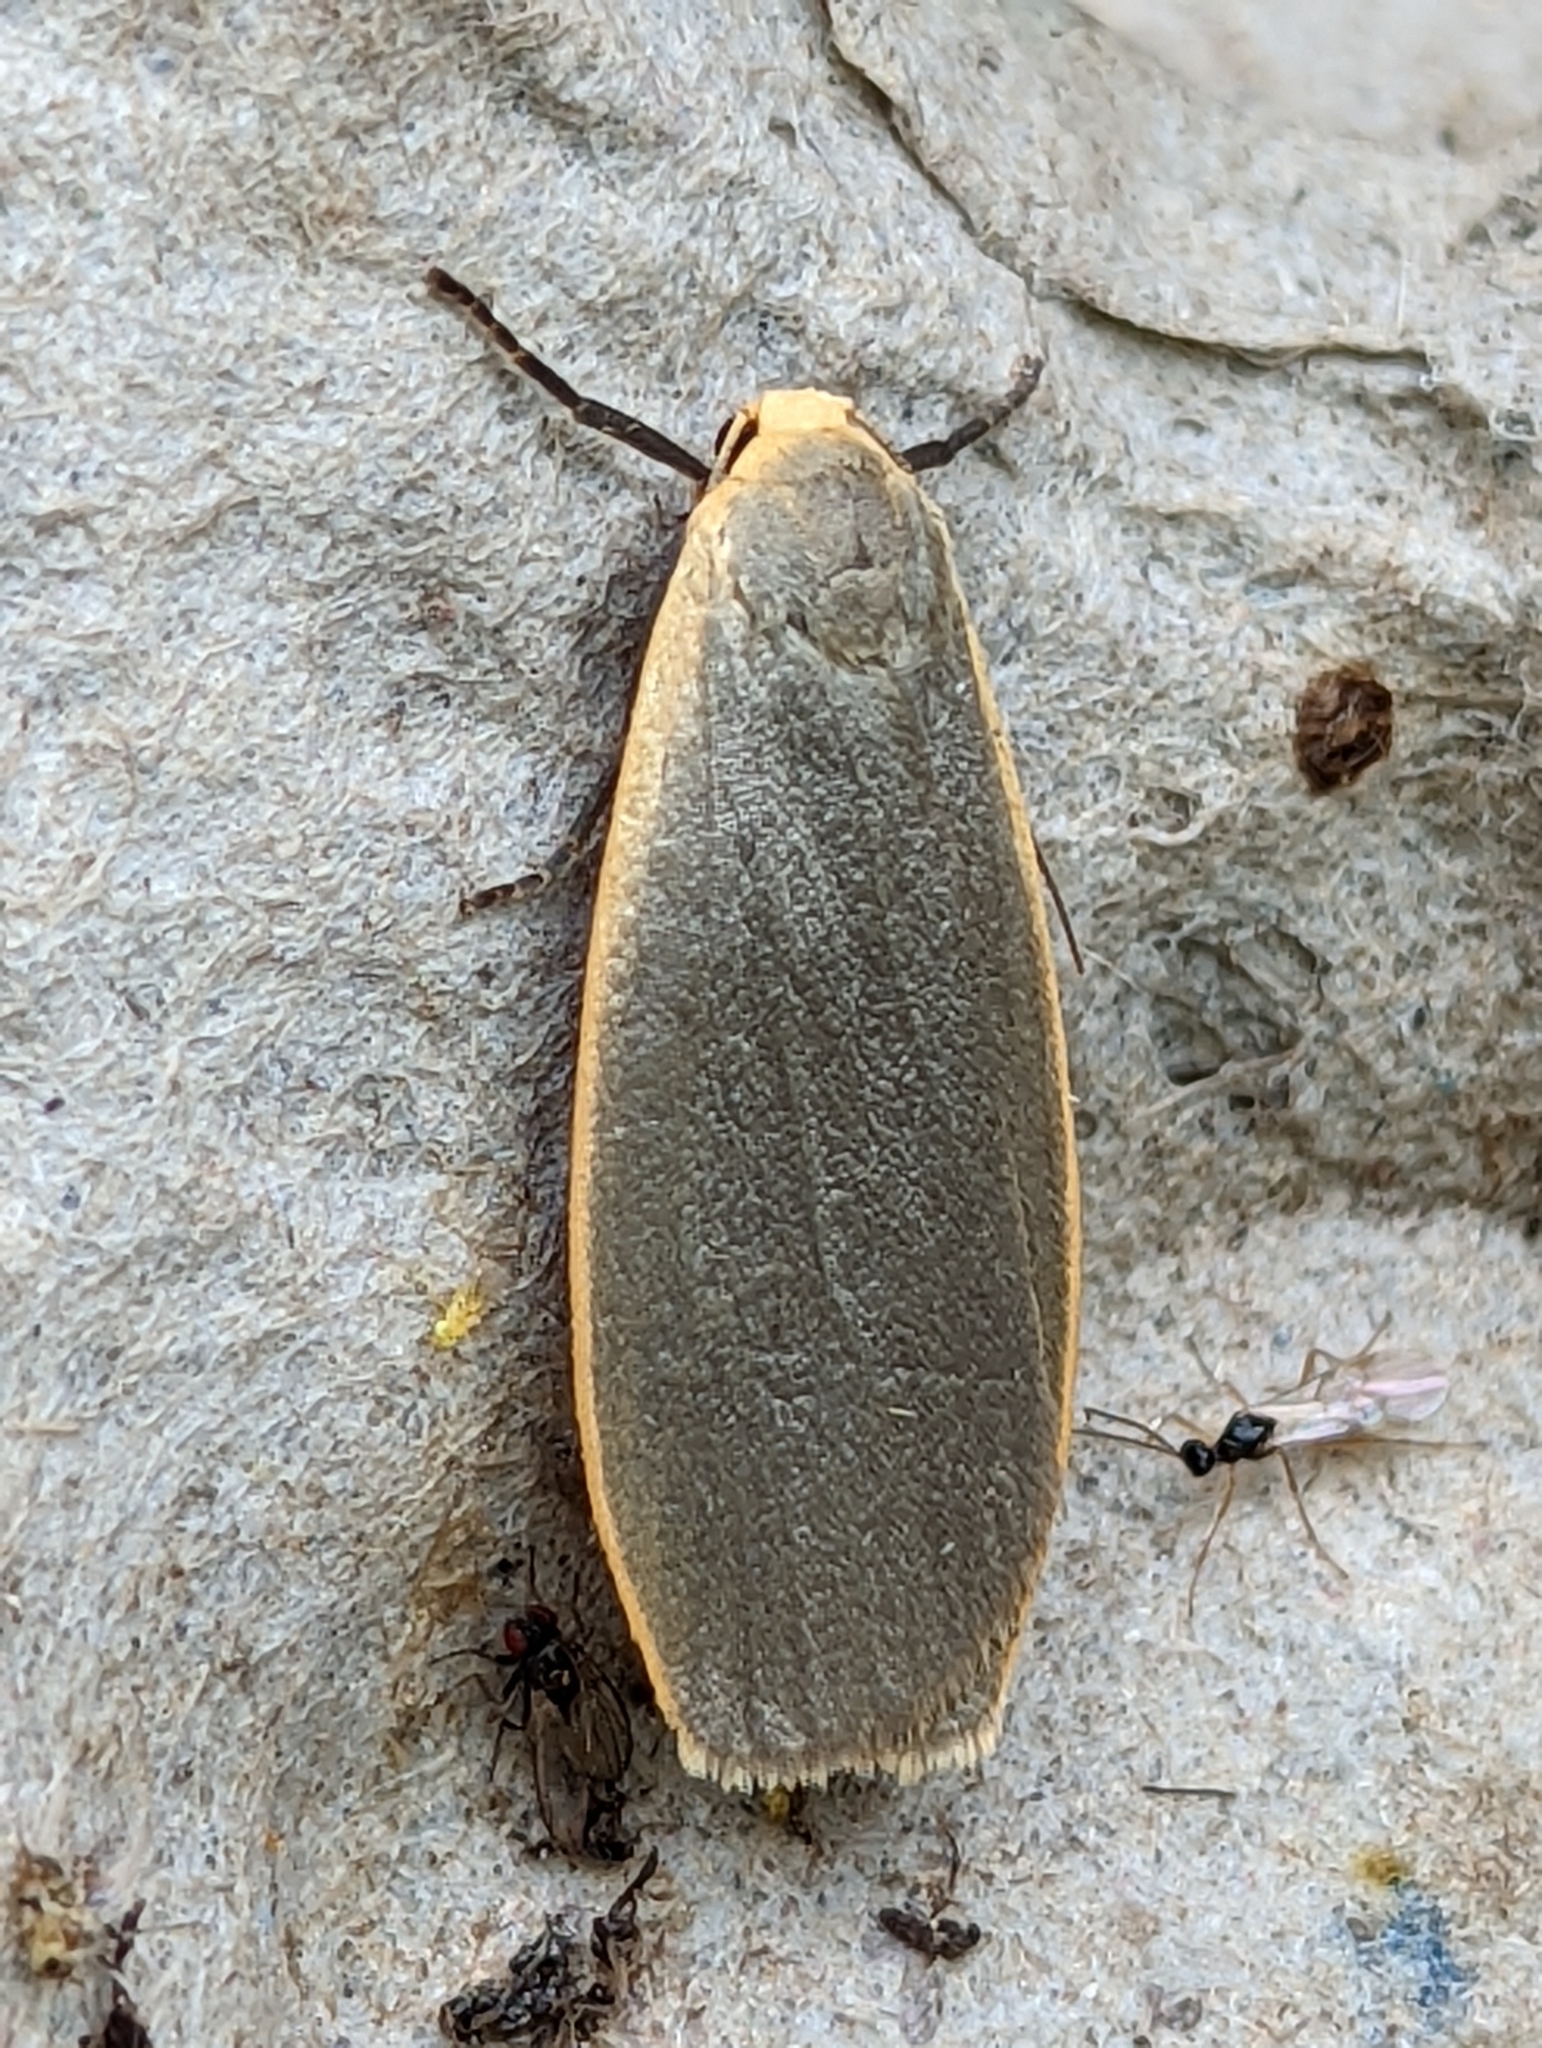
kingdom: Animalia
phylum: Arthropoda
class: Insecta
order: Lepidoptera
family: Erebidae
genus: Collita
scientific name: Collita griseola
